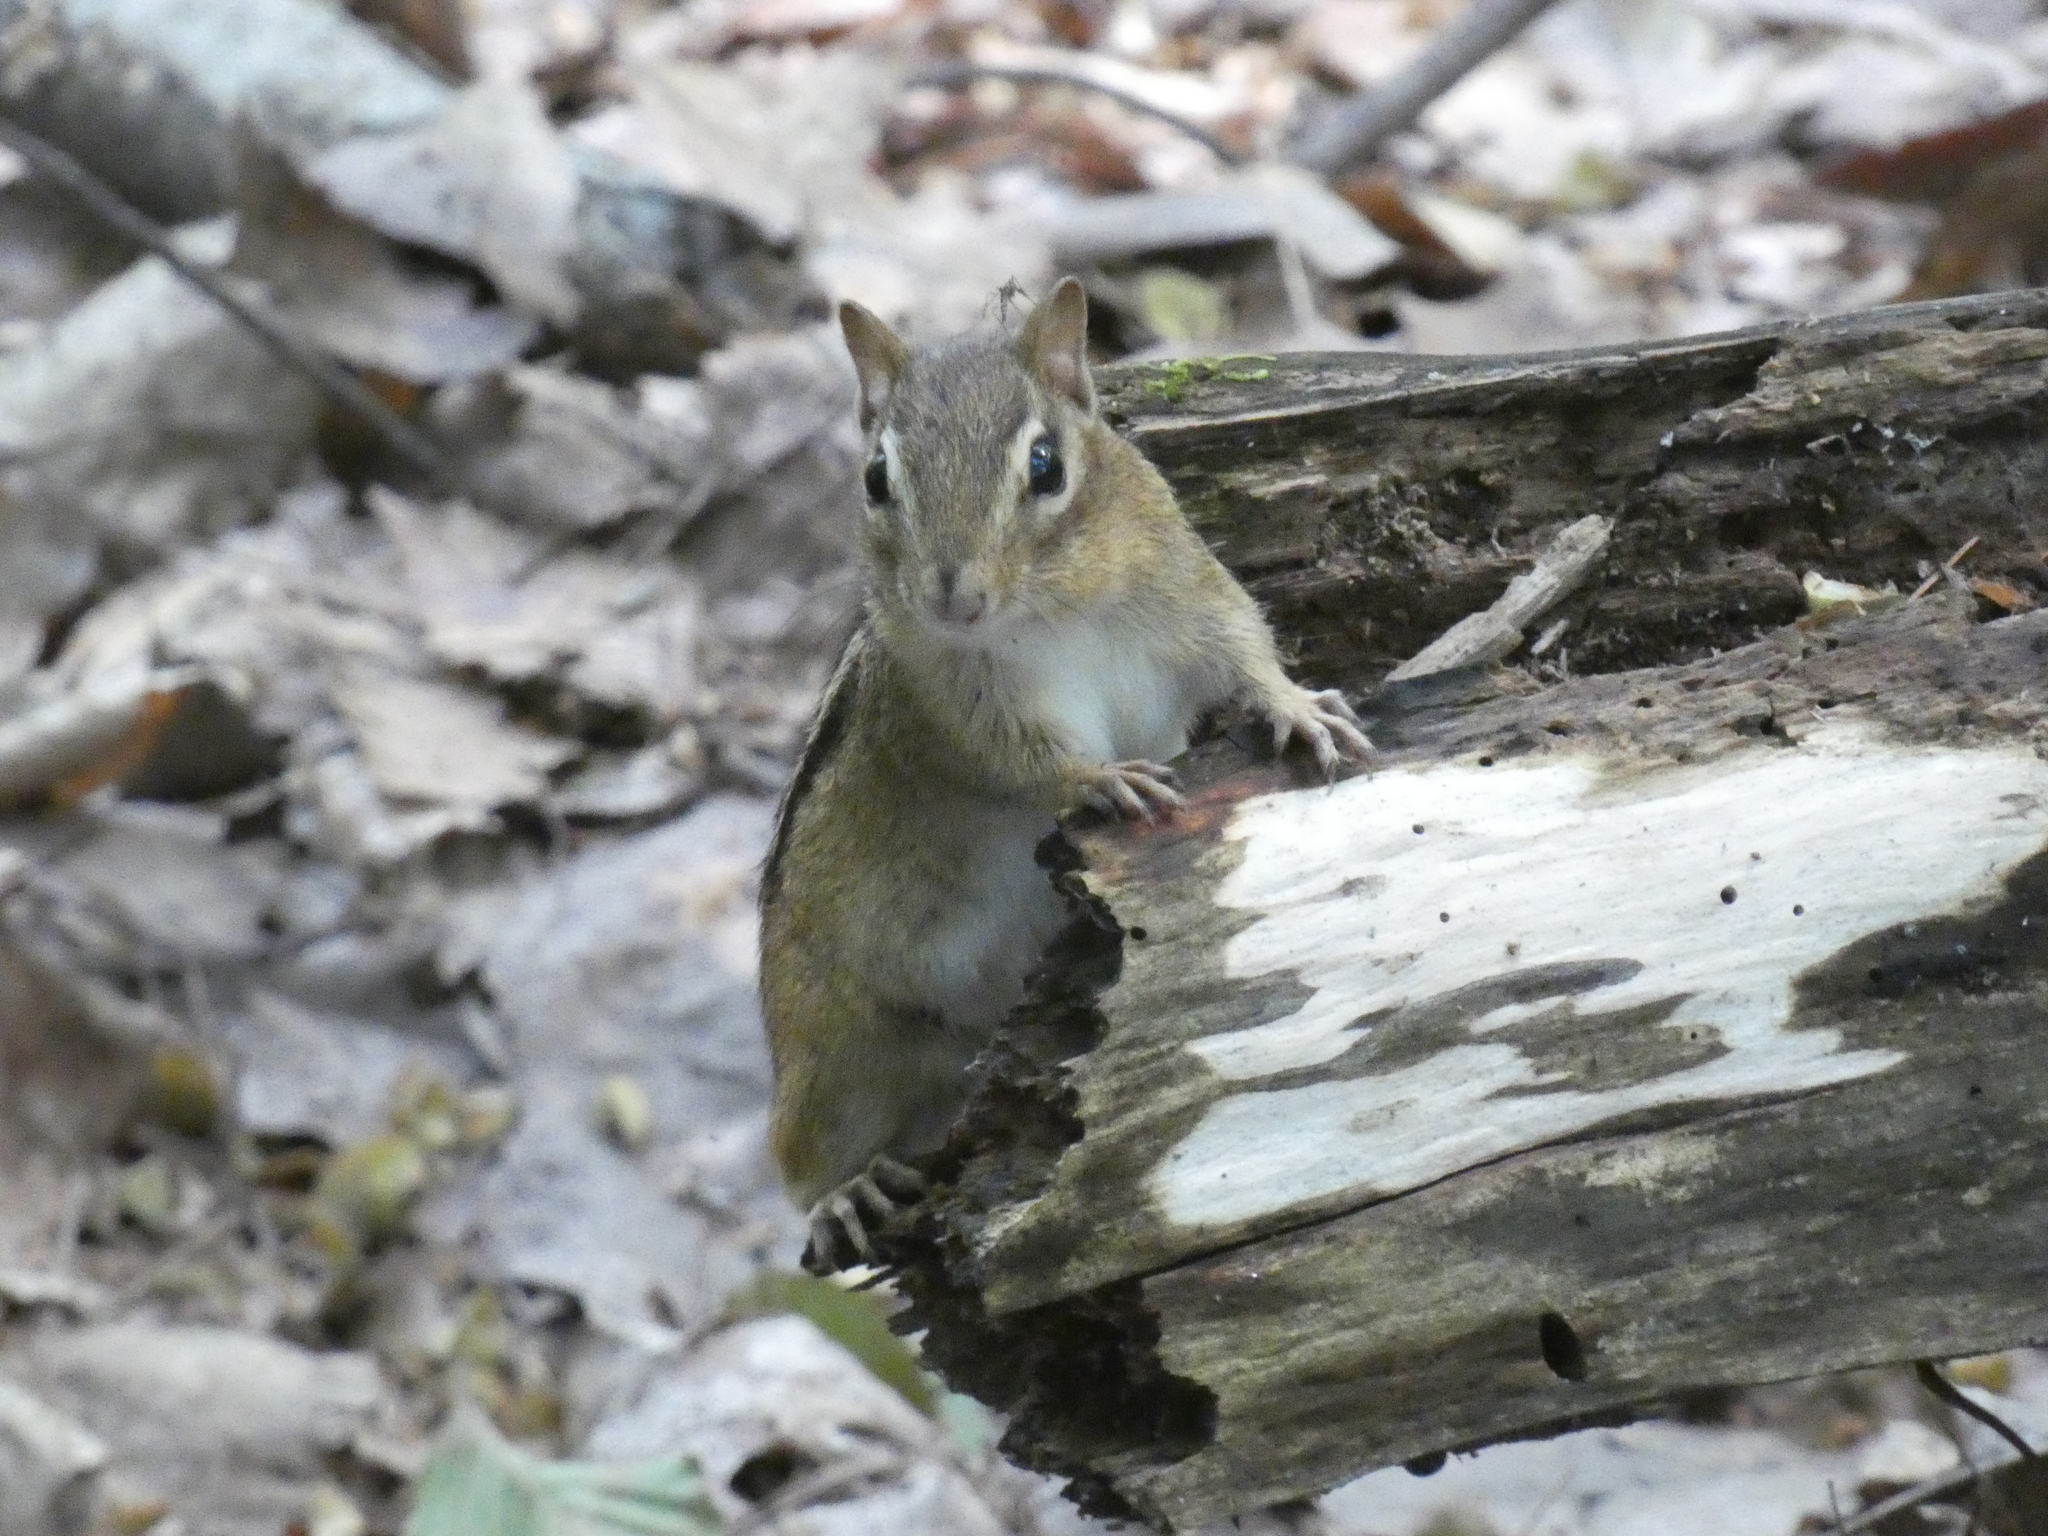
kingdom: Animalia
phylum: Chordata
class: Mammalia
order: Rodentia
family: Sciuridae
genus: Tamias
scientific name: Tamias striatus
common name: Eastern chipmunk
